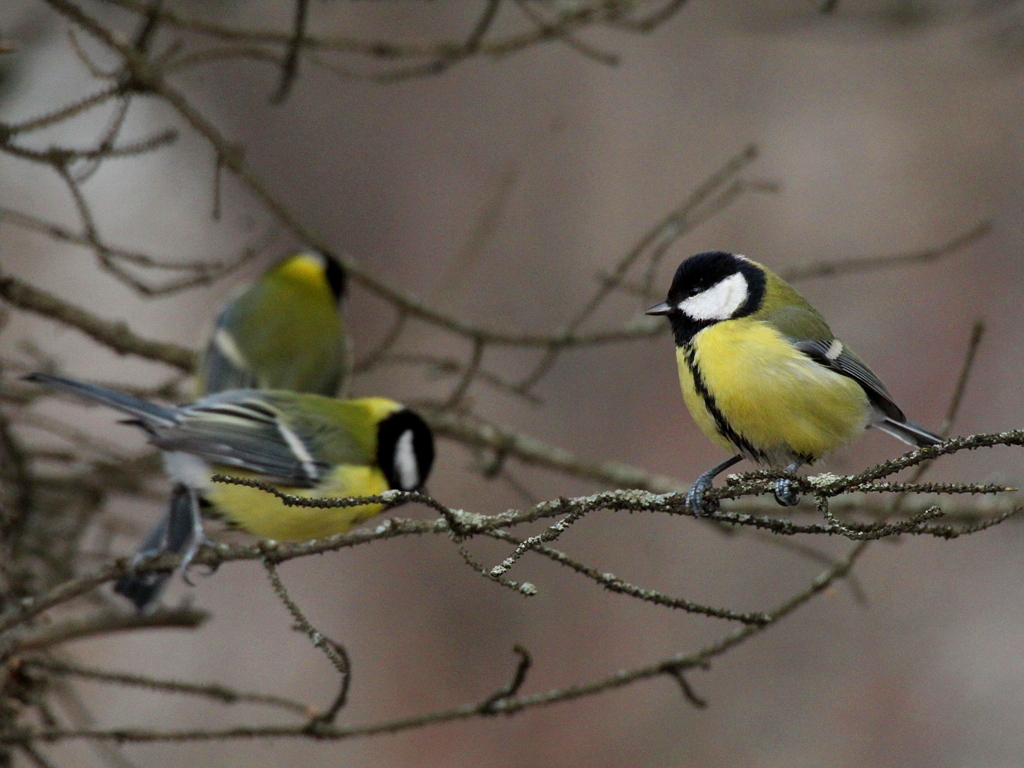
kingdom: Animalia
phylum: Chordata
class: Aves
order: Passeriformes
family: Paridae
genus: Parus
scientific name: Parus major
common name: Great tit
